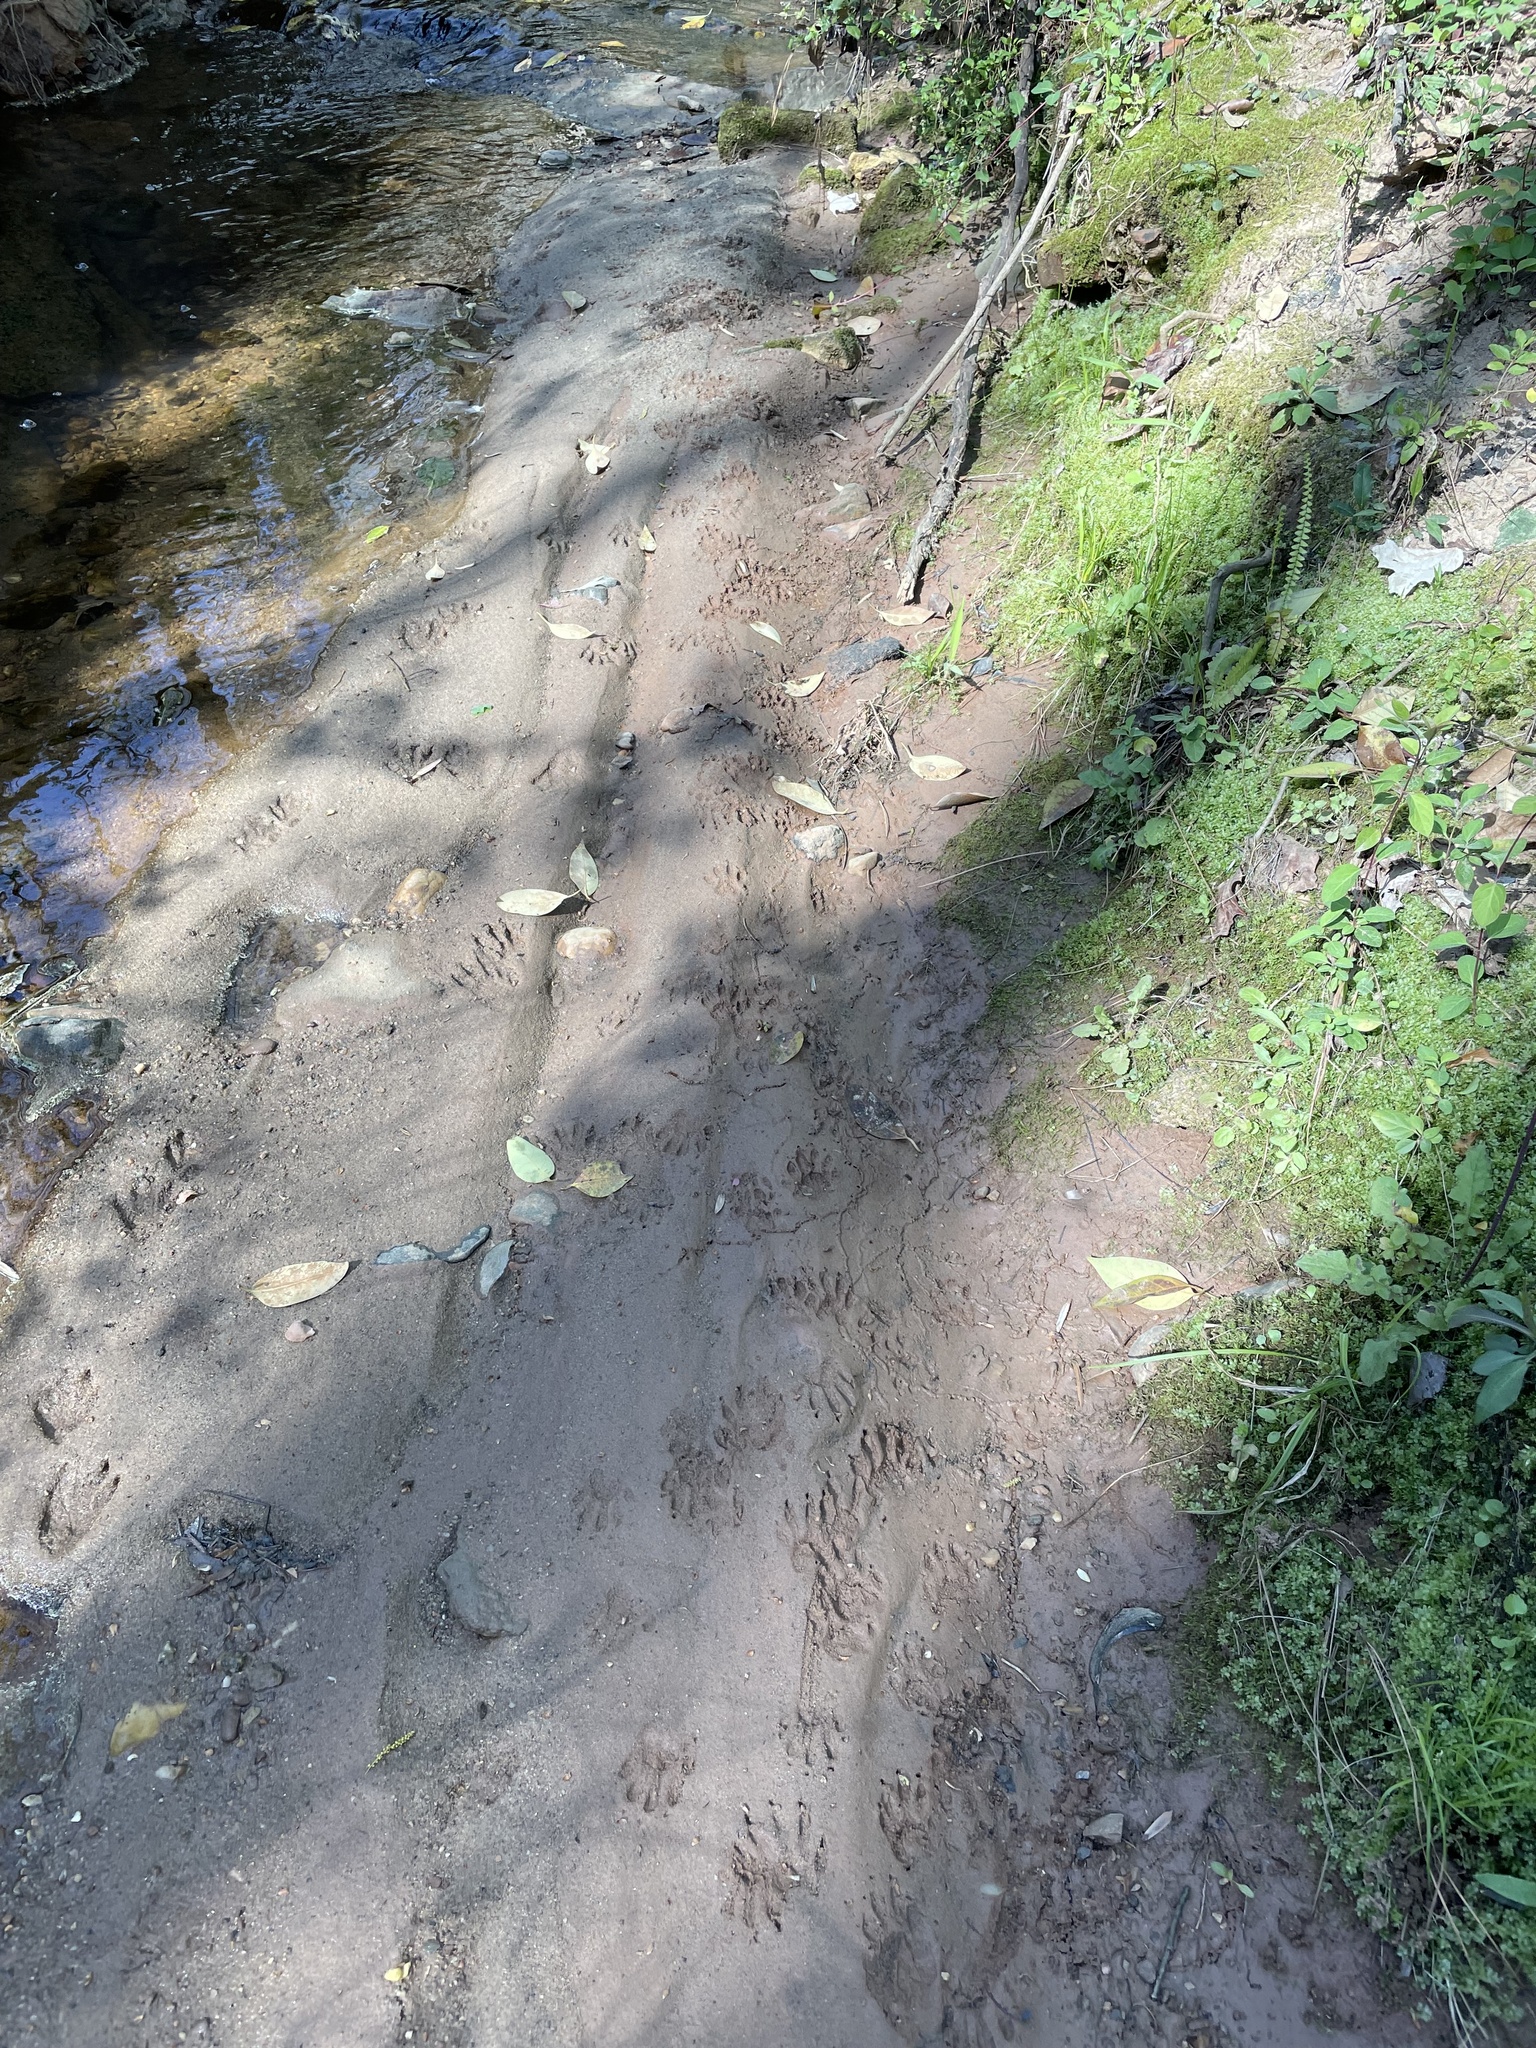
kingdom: Animalia
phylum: Chordata
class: Mammalia
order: Carnivora
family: Procyonidae
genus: Procyon
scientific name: Procyon lotor
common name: Raccoon
